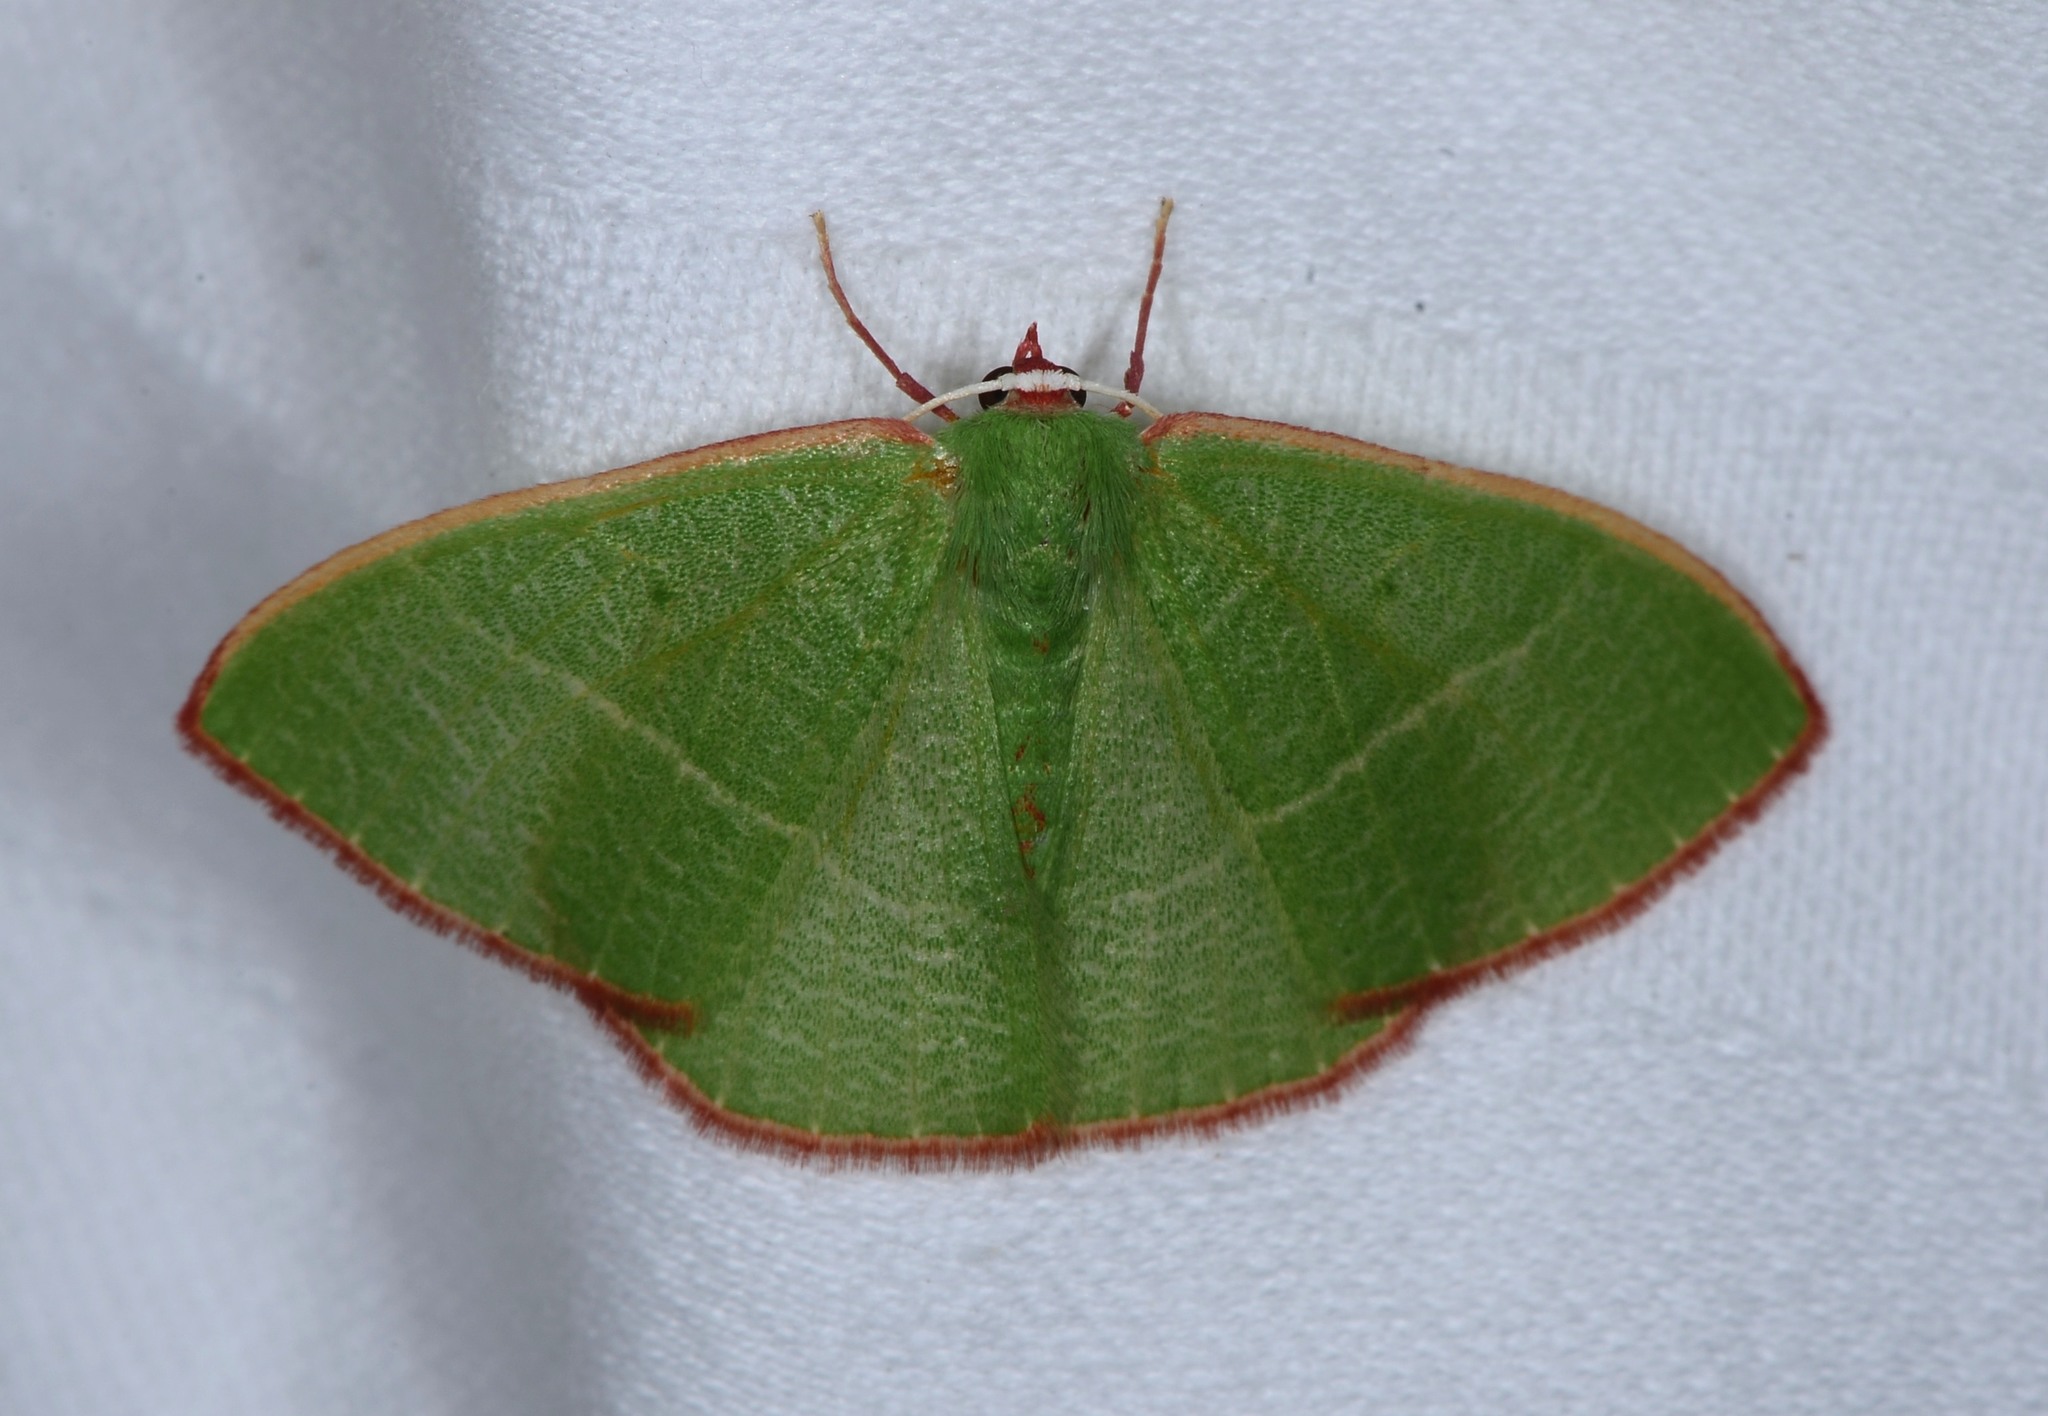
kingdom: Animalia
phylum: Arthropoda
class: Insecta
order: Lepidoptera
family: Geometridae
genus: Nemoria
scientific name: Nemoria leptalea
